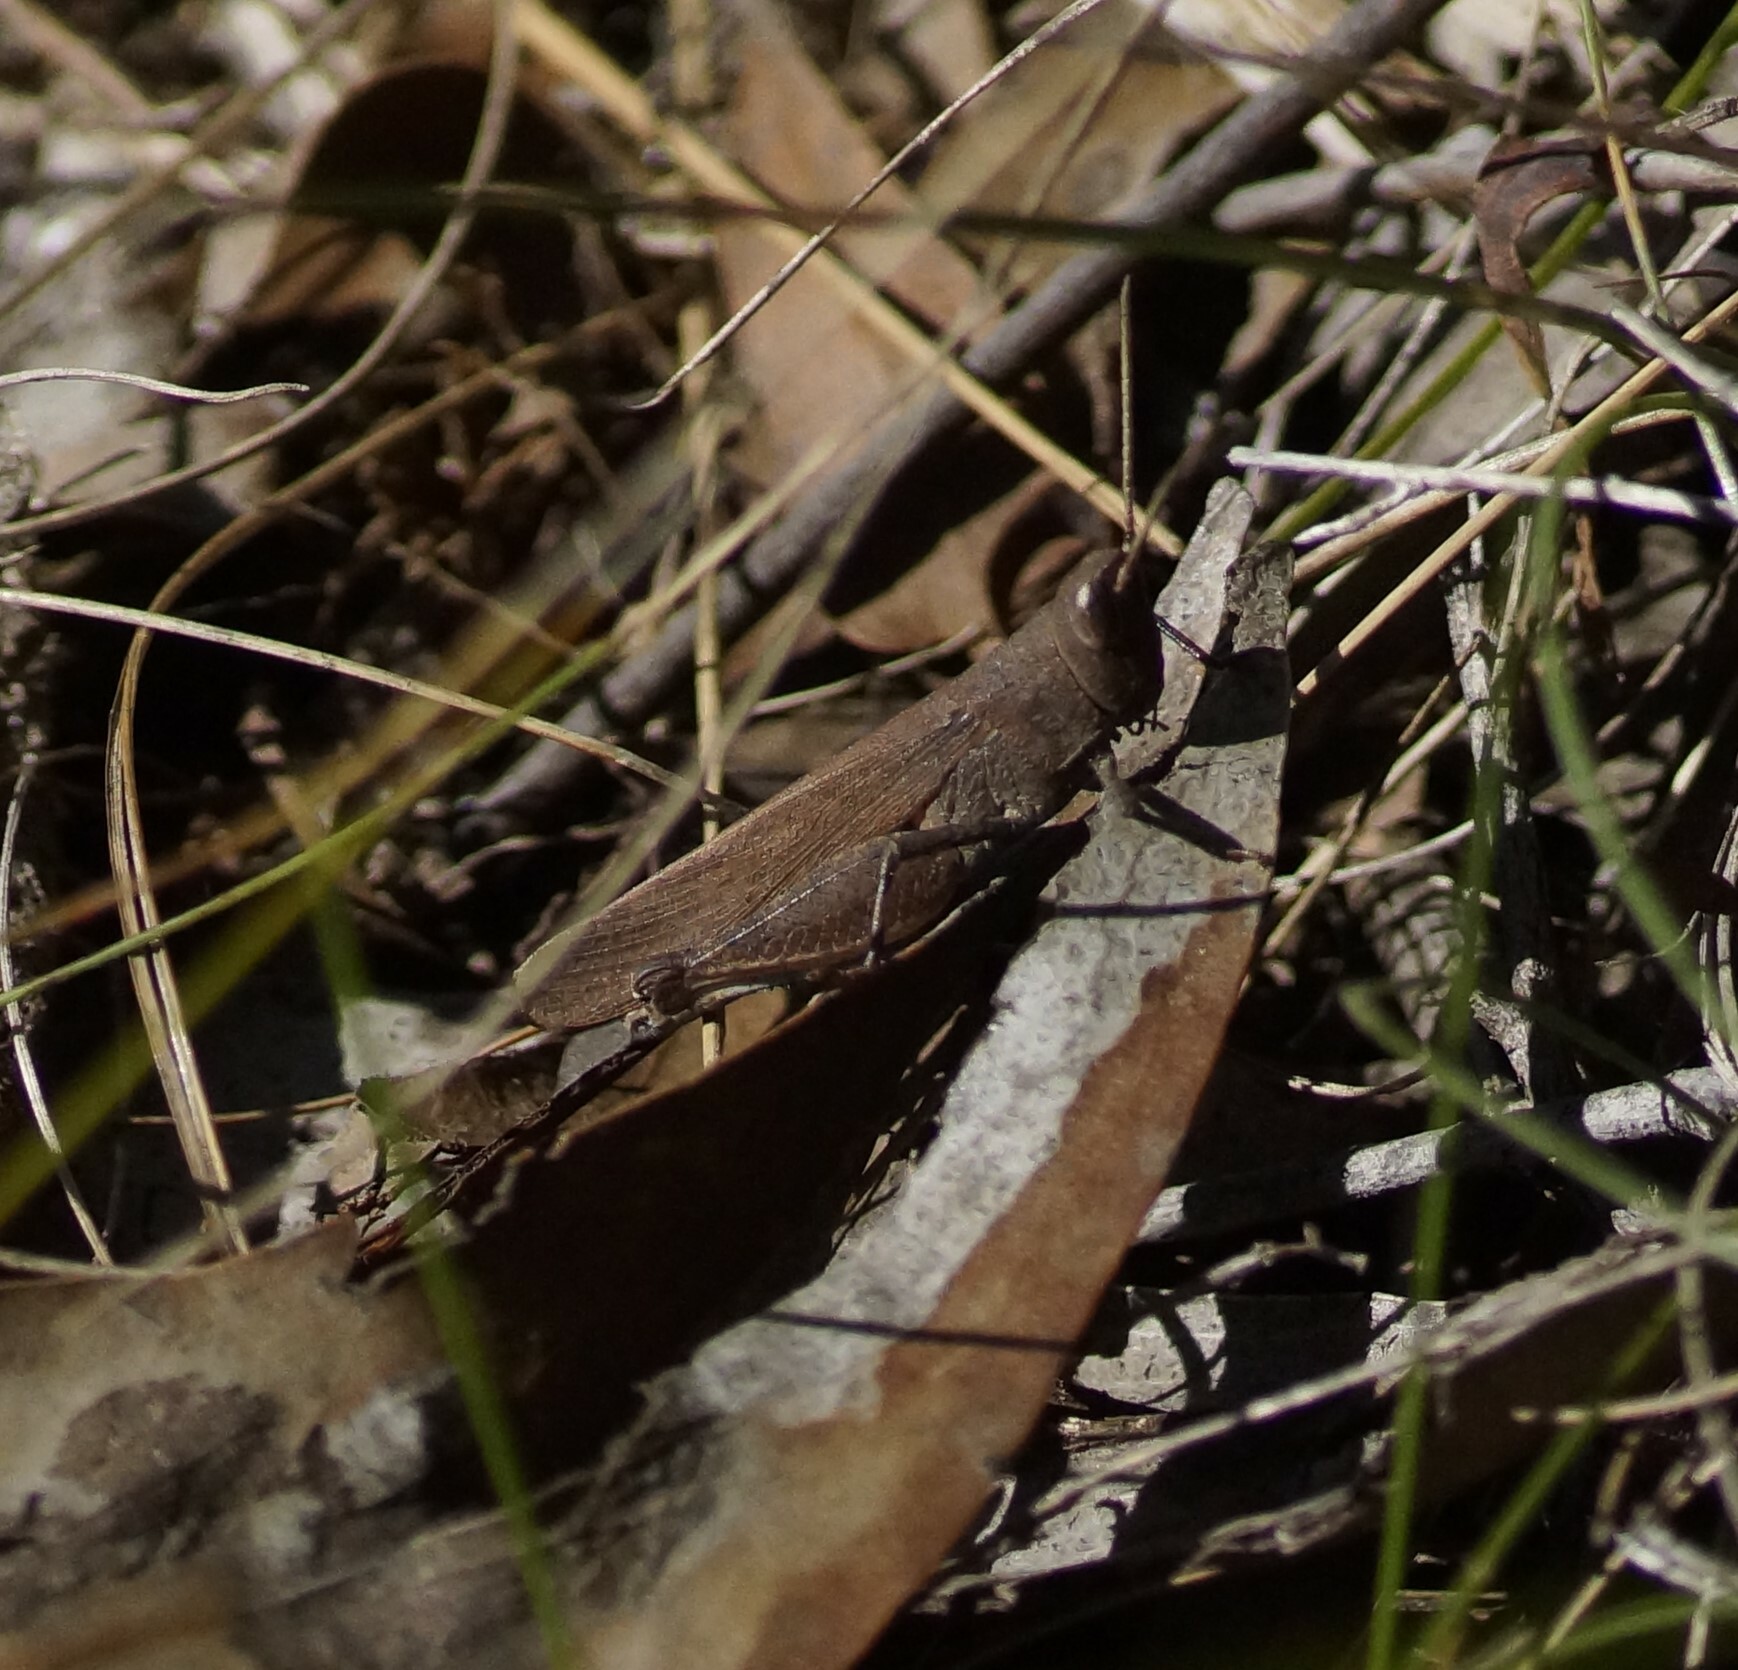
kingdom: Animalia
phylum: Arthropoda
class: Insecta
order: Orthoptera
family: Acrididae
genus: Goniaea
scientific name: Goniaea opomaloides
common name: Mimetic gumleaf grasshopper
